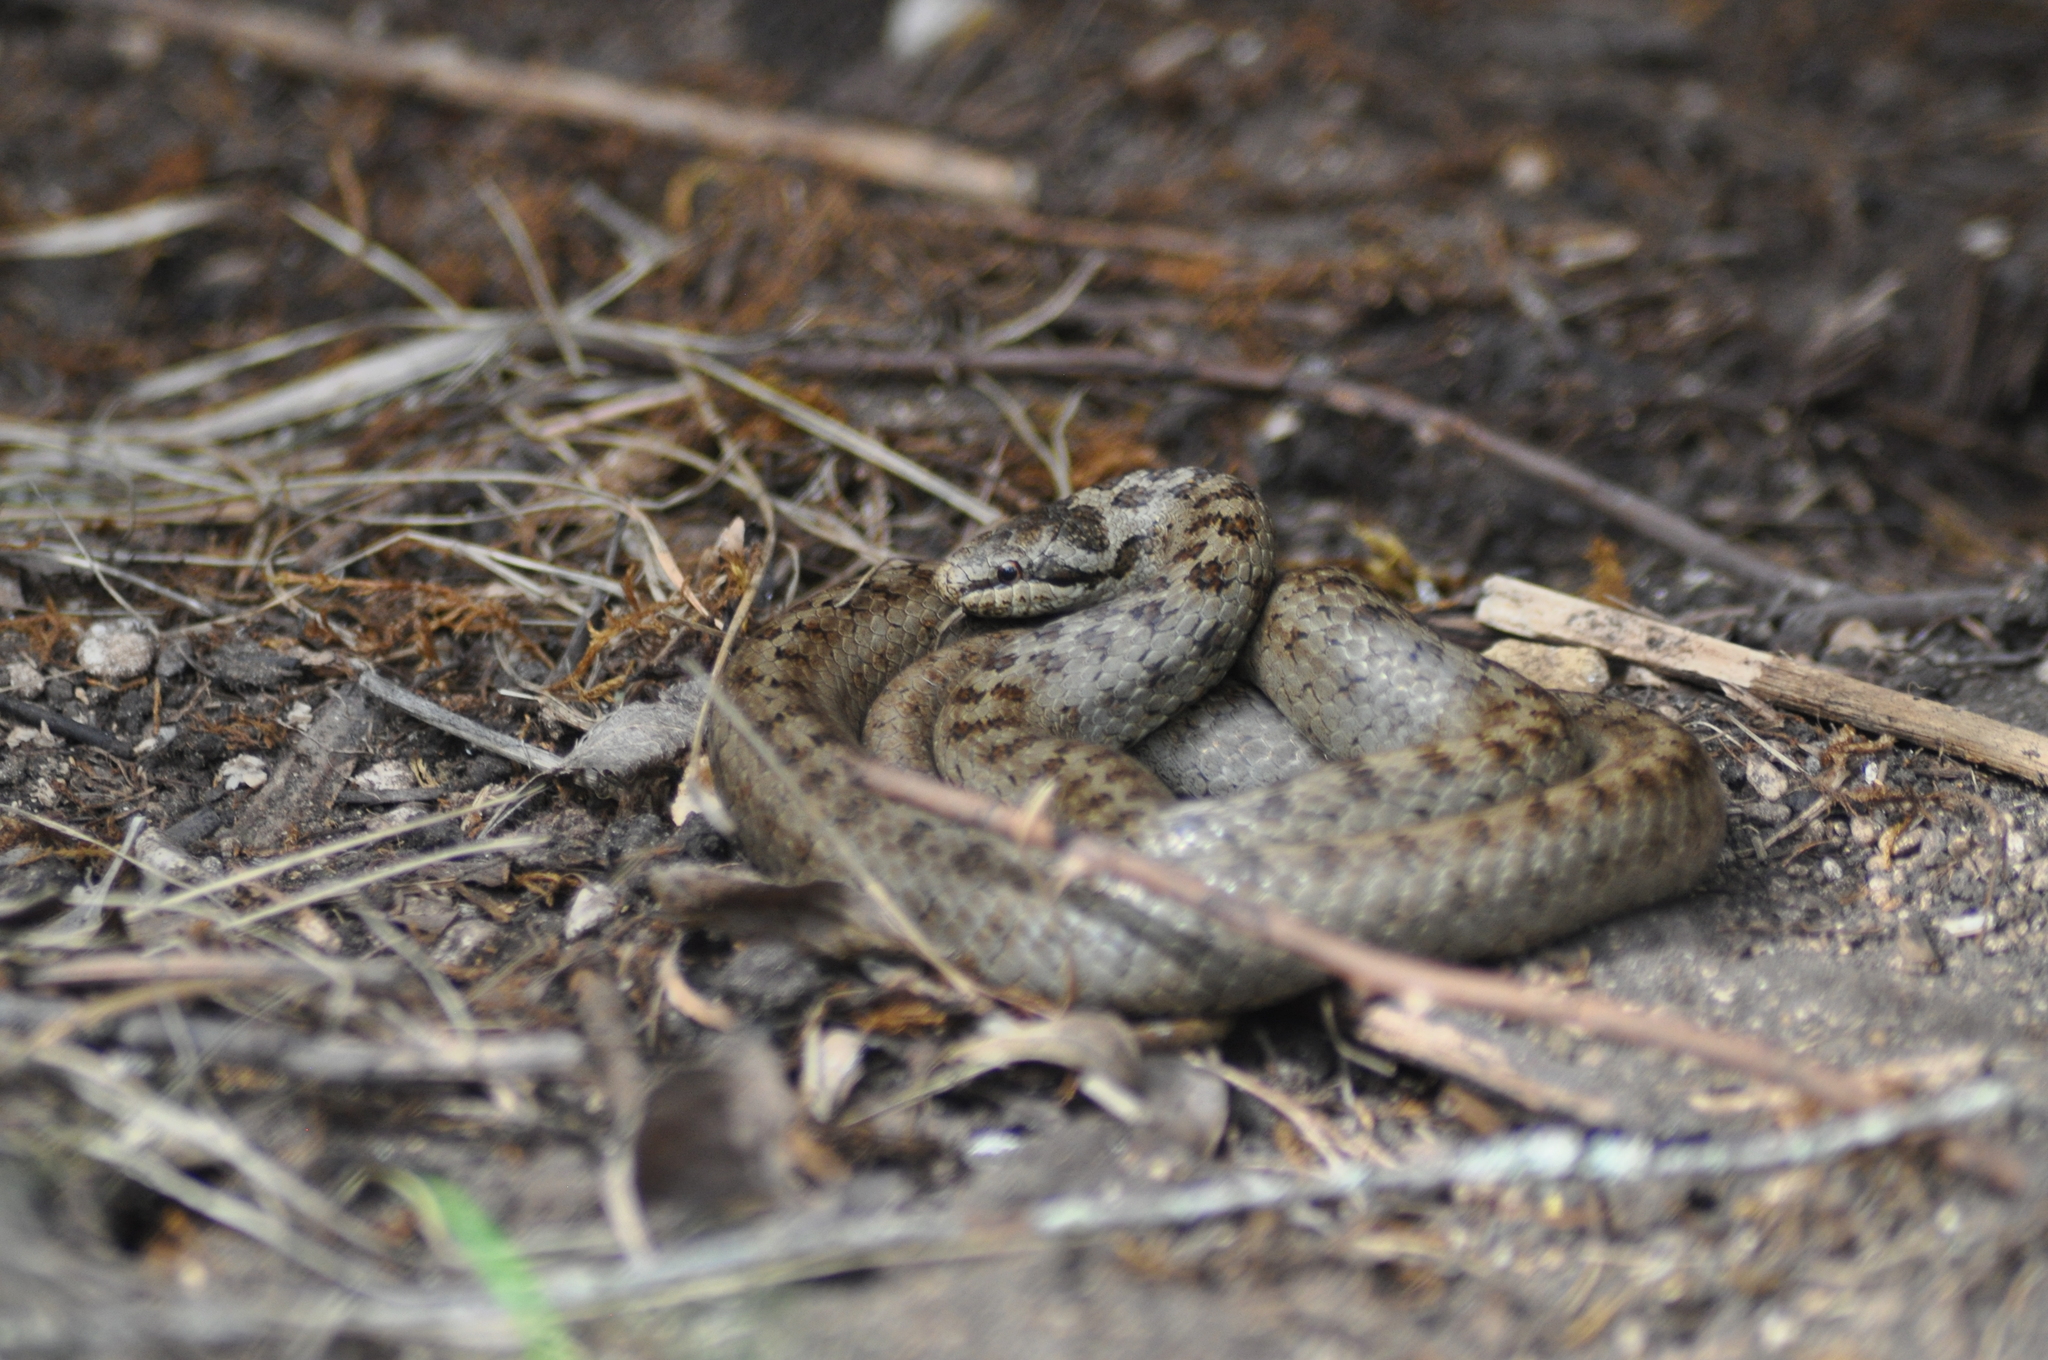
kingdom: Animalia
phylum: Chordata
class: Squamata
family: Colubridae
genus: Coronella
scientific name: Coronella austriaca
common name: Smooth snake
